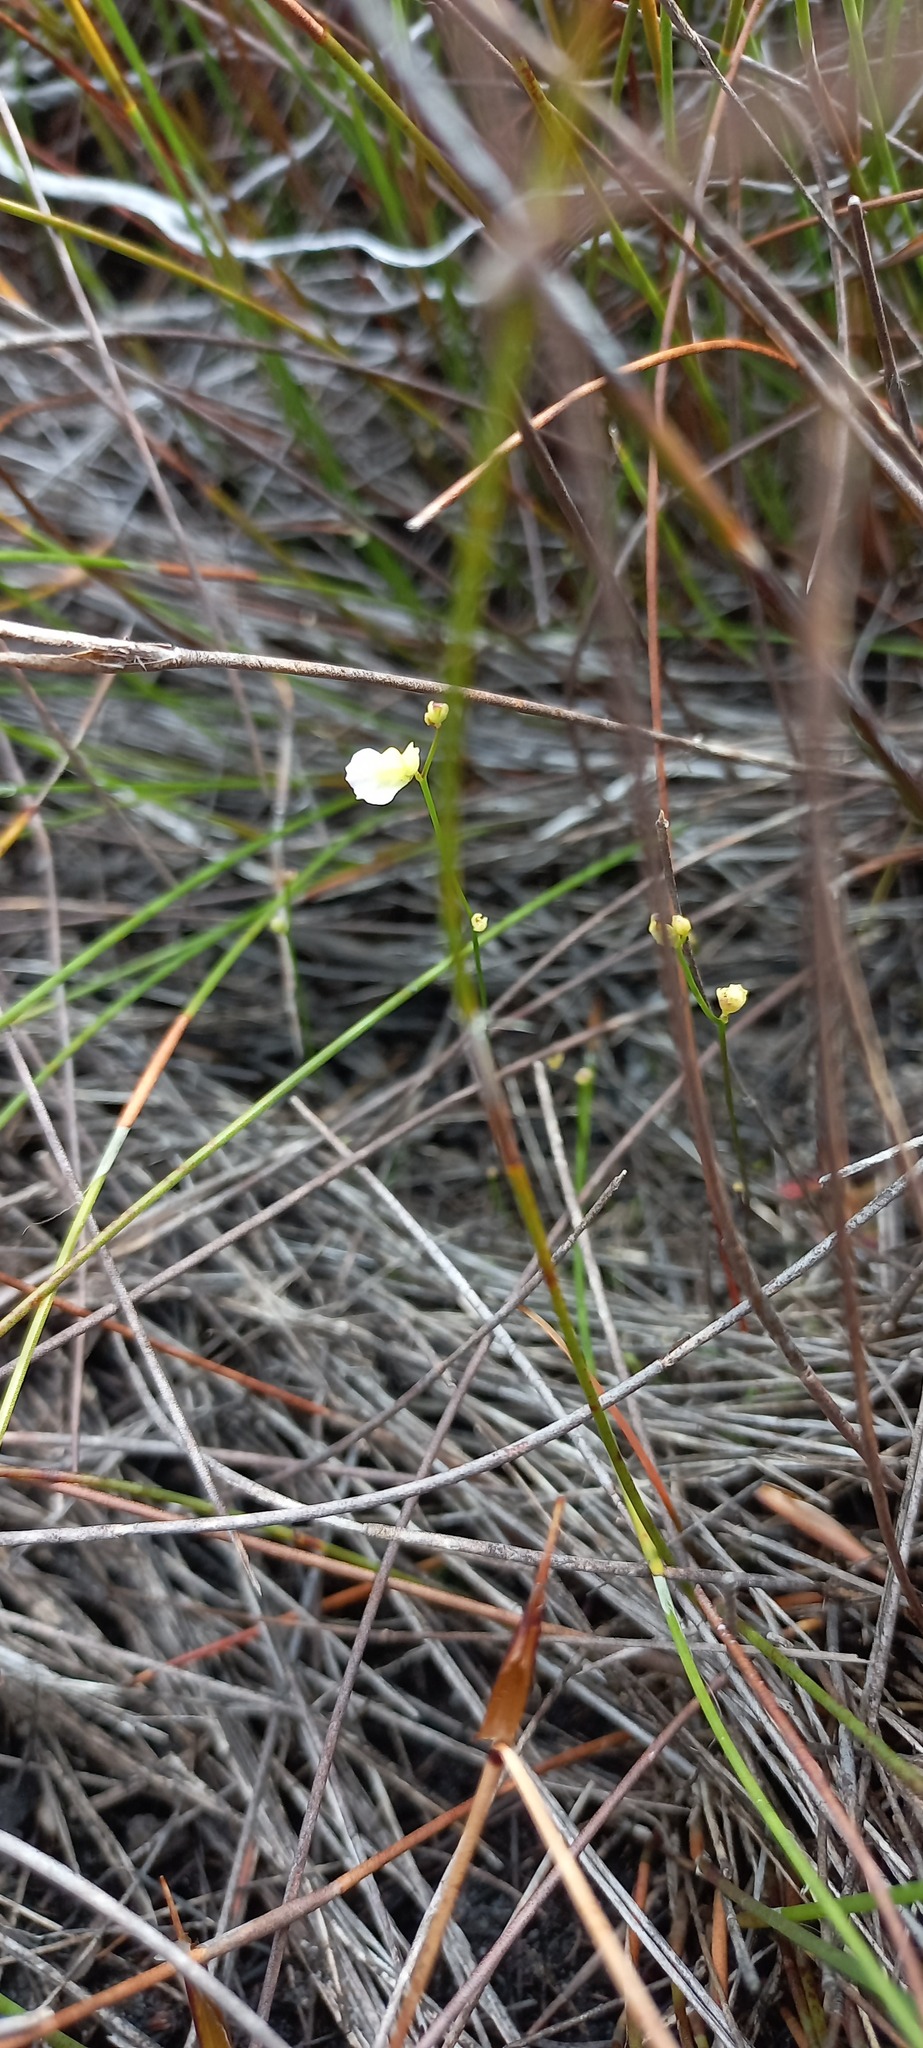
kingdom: Plantae
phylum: Tracheophyta
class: Magnoliopsida
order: Lamiales
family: Lentibulariaceae
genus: Utricularia
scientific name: Utricularia bisquamata
